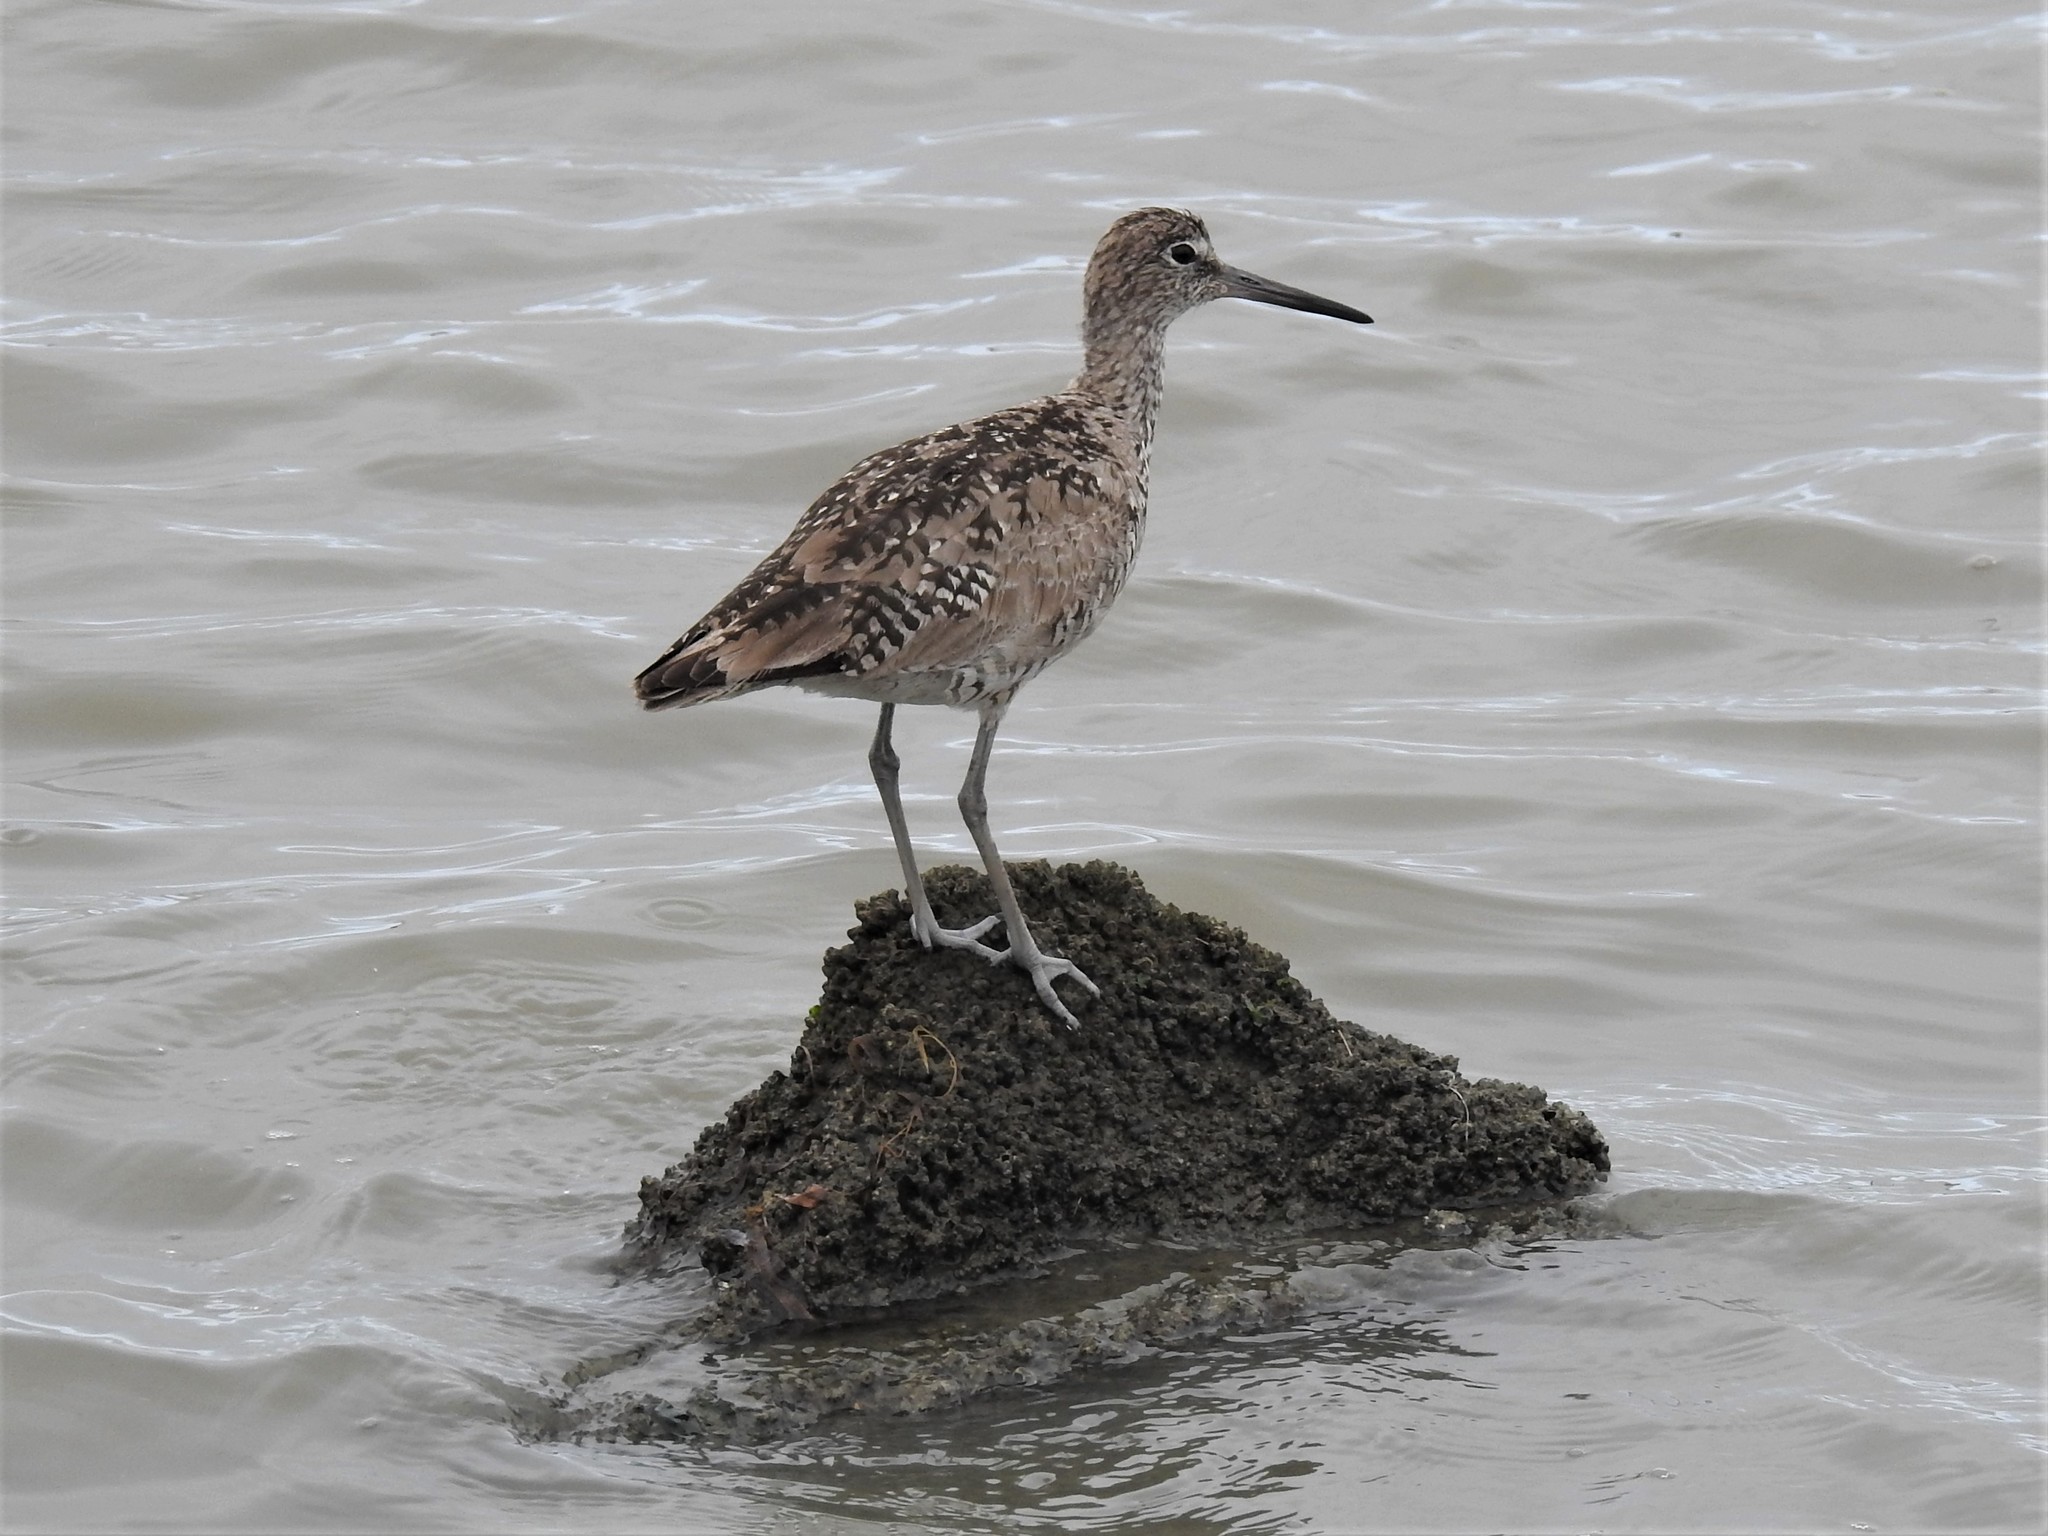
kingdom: Animalia
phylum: Chordata
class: Aves
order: Charadriiformes
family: Scolopacidae
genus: Tringa
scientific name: Tringa semipalmata
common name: Willet
